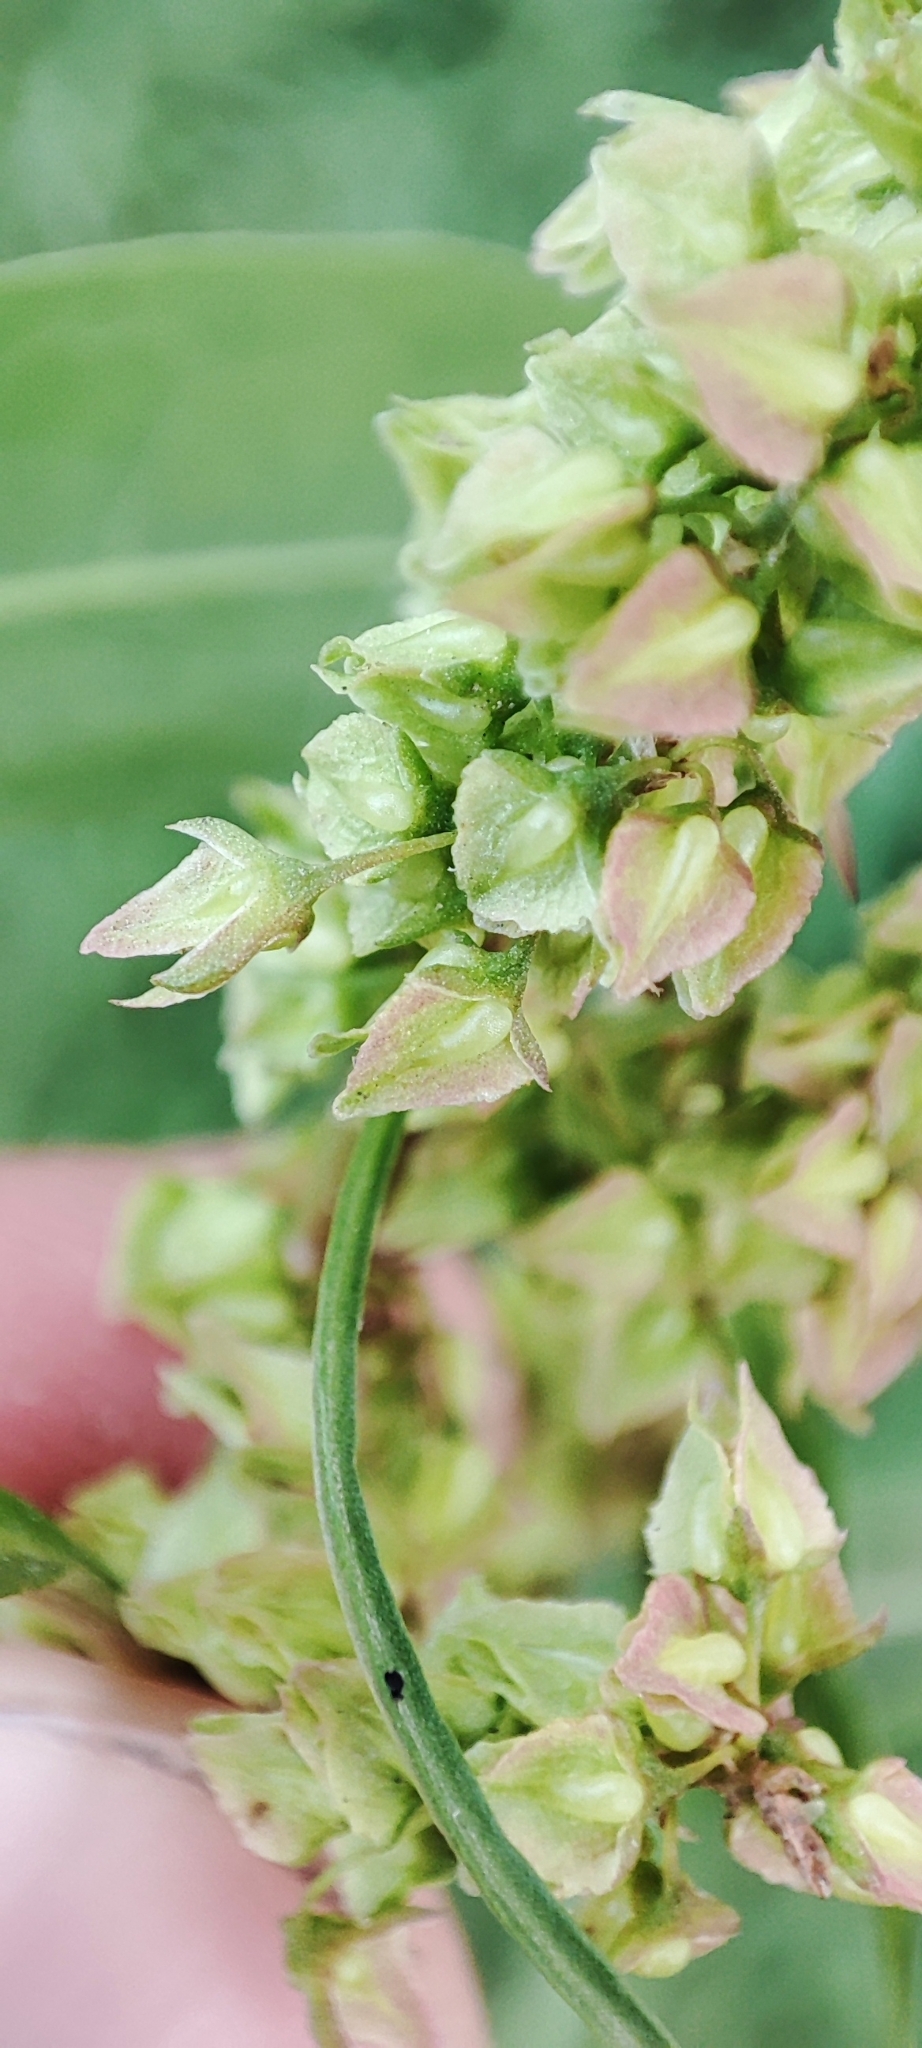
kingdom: Plantae
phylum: Tracheophyta
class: Magnoliopsida
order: Caryophyllales
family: Polygonaceae
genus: Rumex
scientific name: Rumex crispus
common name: Curled dock
